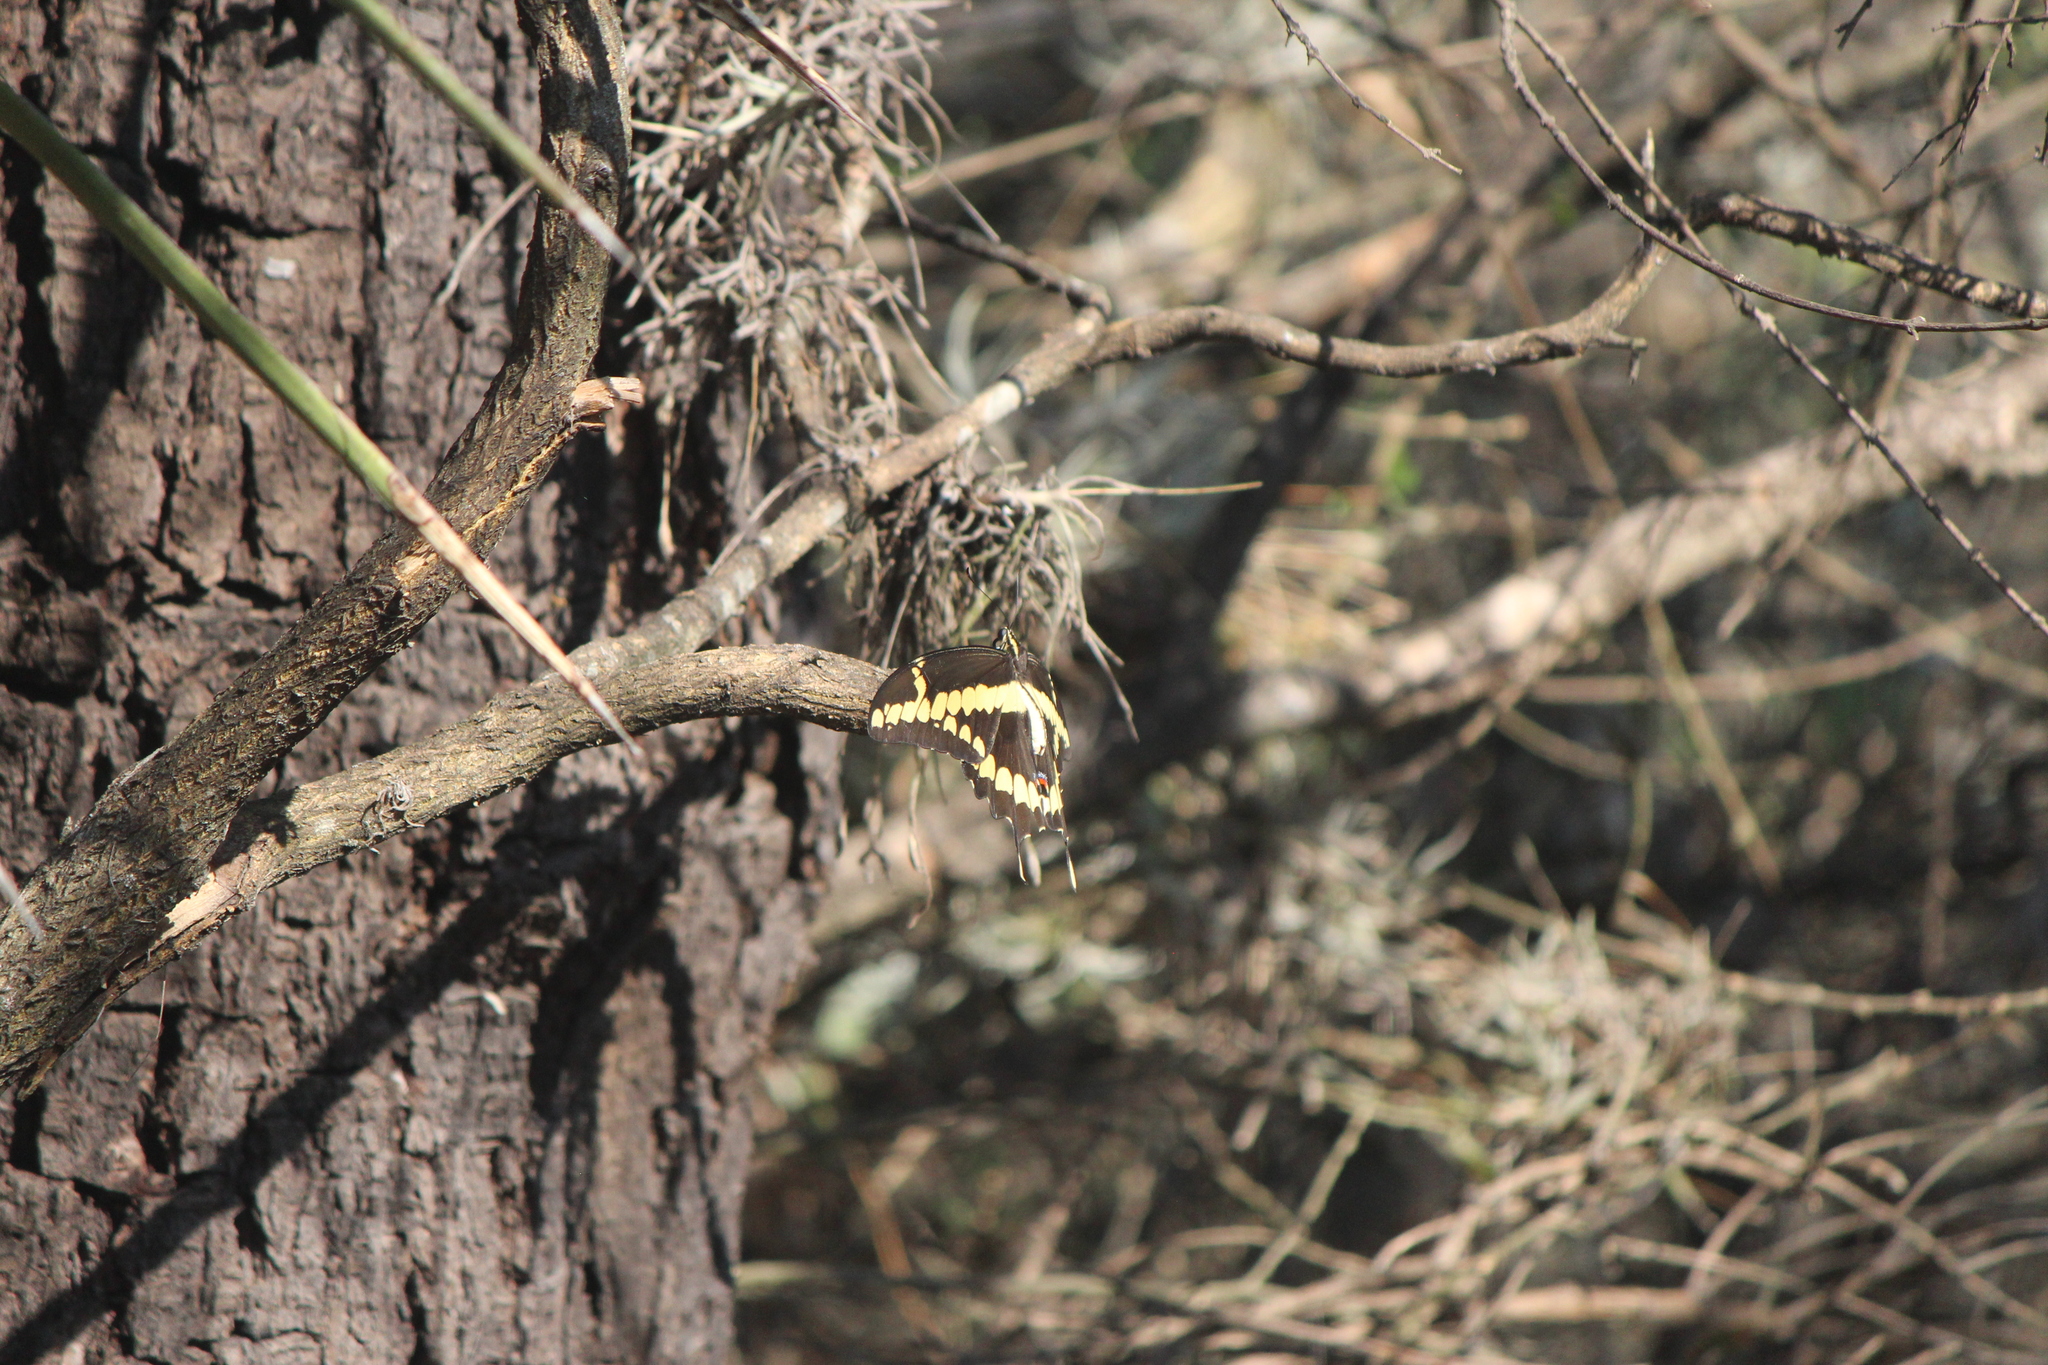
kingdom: Animalia
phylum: Arthropoda
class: Insecta
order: Lepidoptera
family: Papilionidae
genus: Papilio
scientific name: Papilio rumiko
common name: Western giant swallowtail
